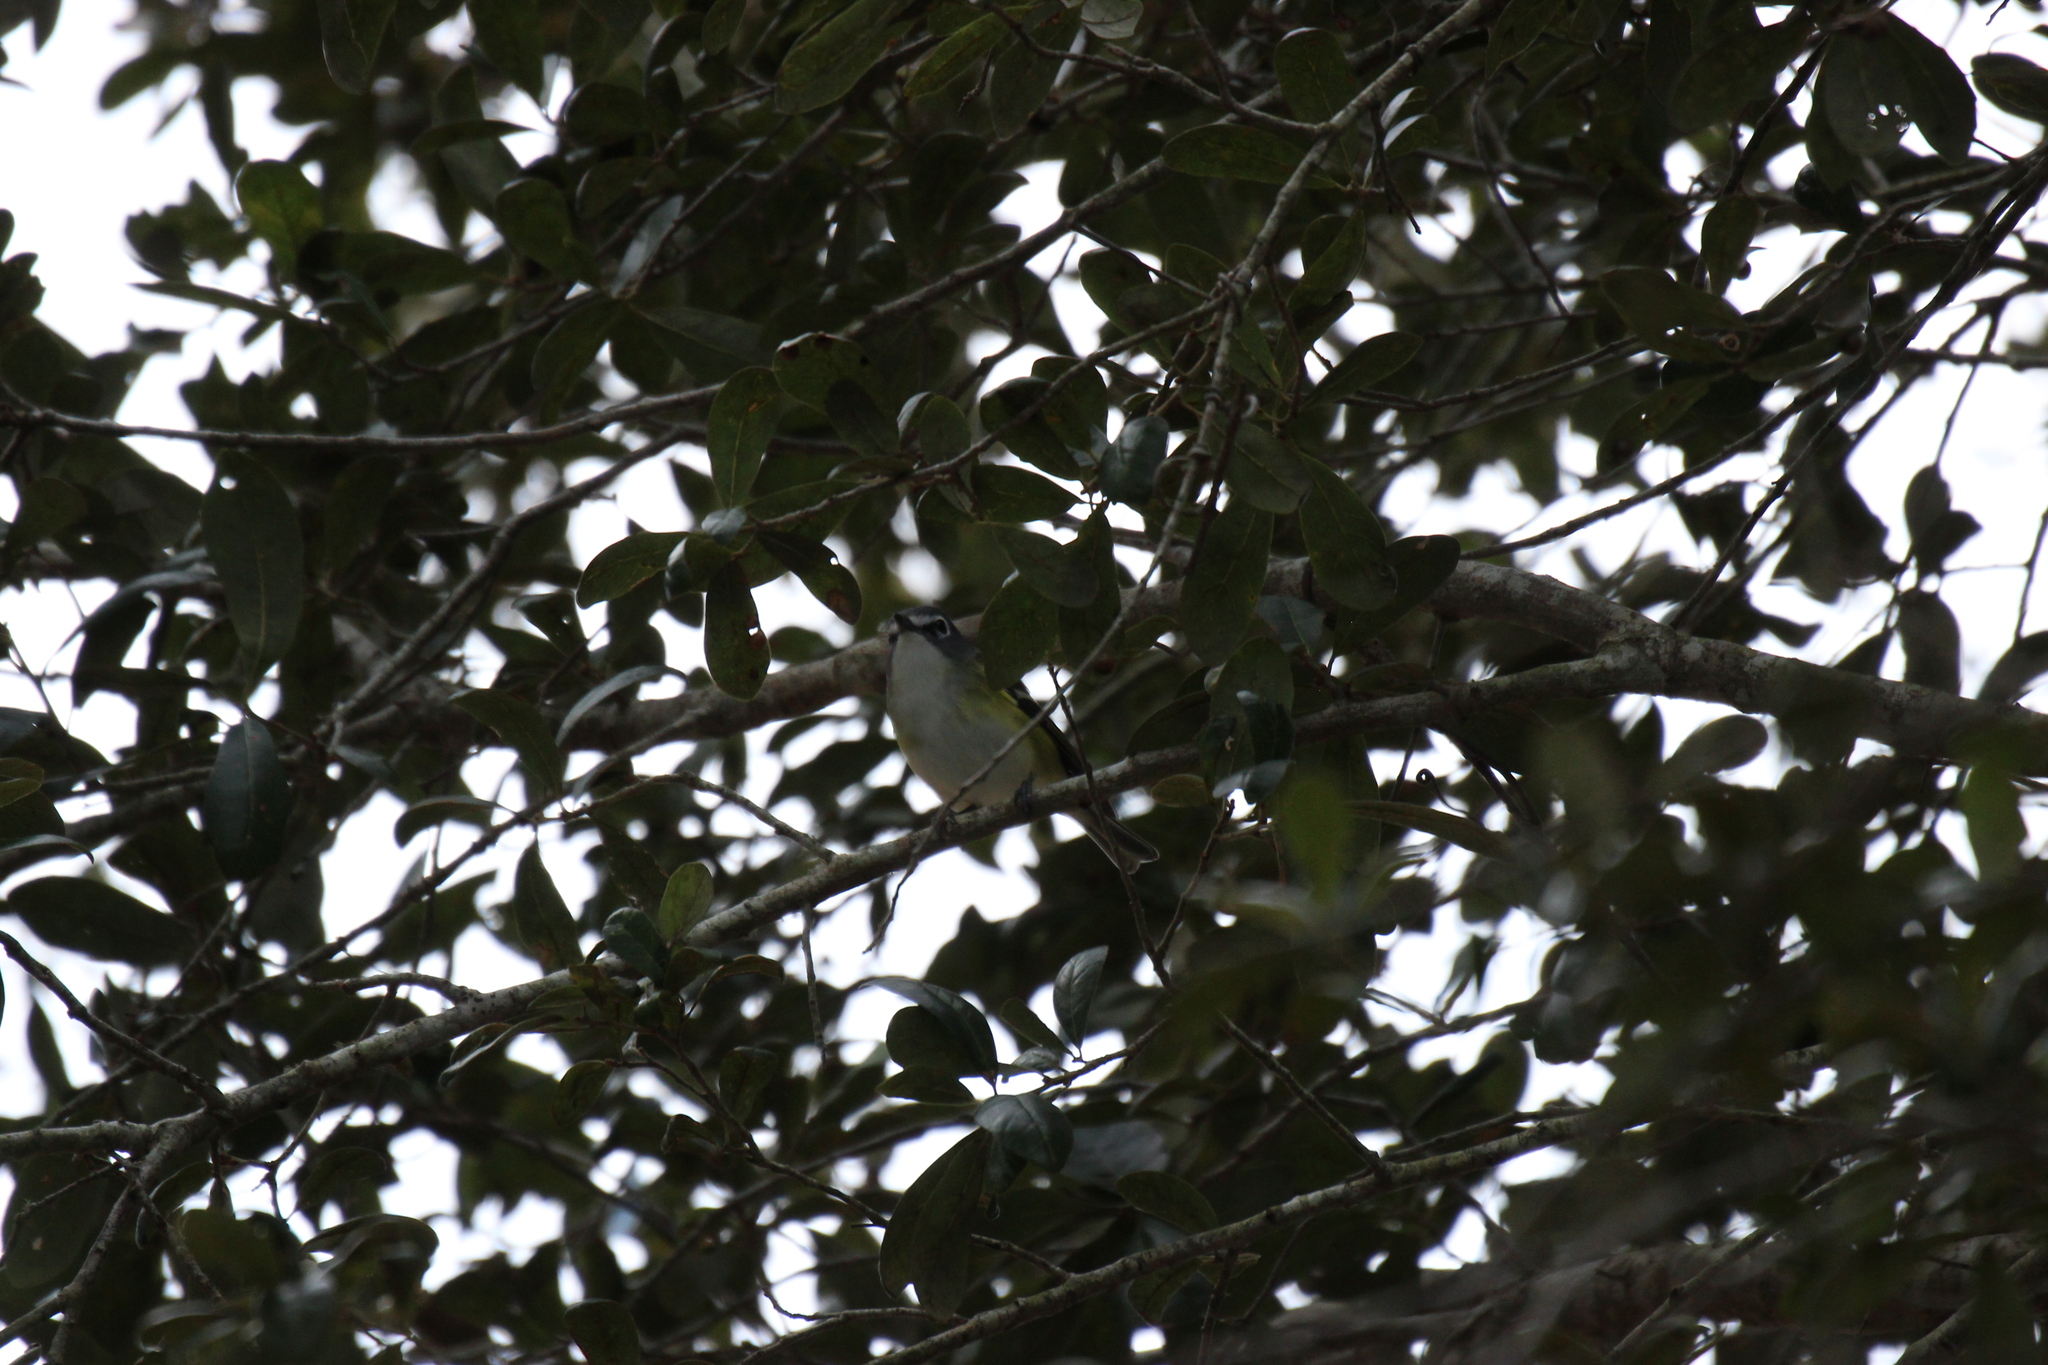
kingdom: Animalia
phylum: Chordata
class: Aves
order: Passeriformes
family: Vireonidae
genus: Vireo
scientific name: Vireo solitarius
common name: Blue-headed vireo
